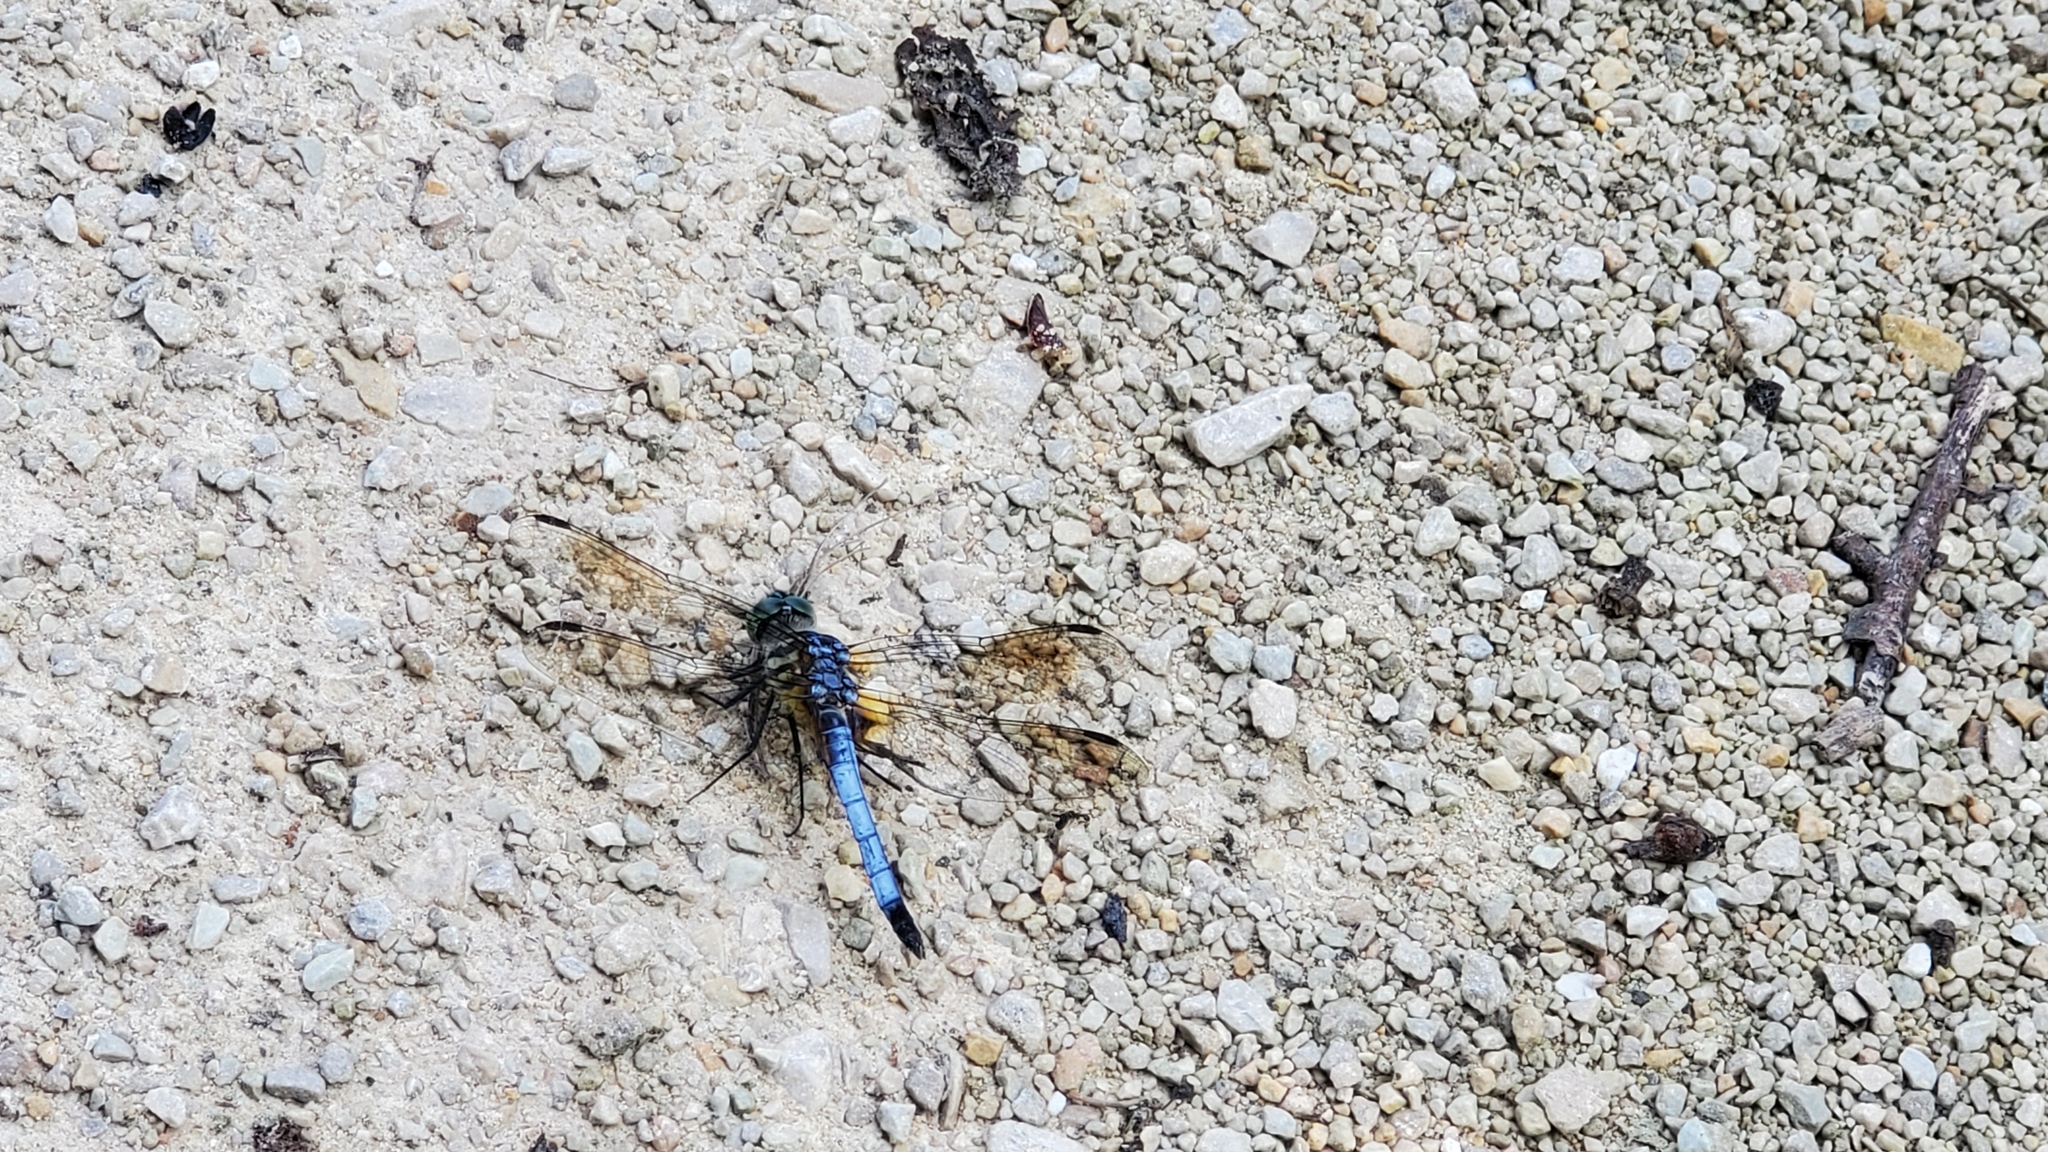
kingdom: Animalia
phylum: Arthropoda
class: Insecta
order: Odonata
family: Libellulidae
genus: Pachydiplax
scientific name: Pachydiplax longipennis
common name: Blue dasher
